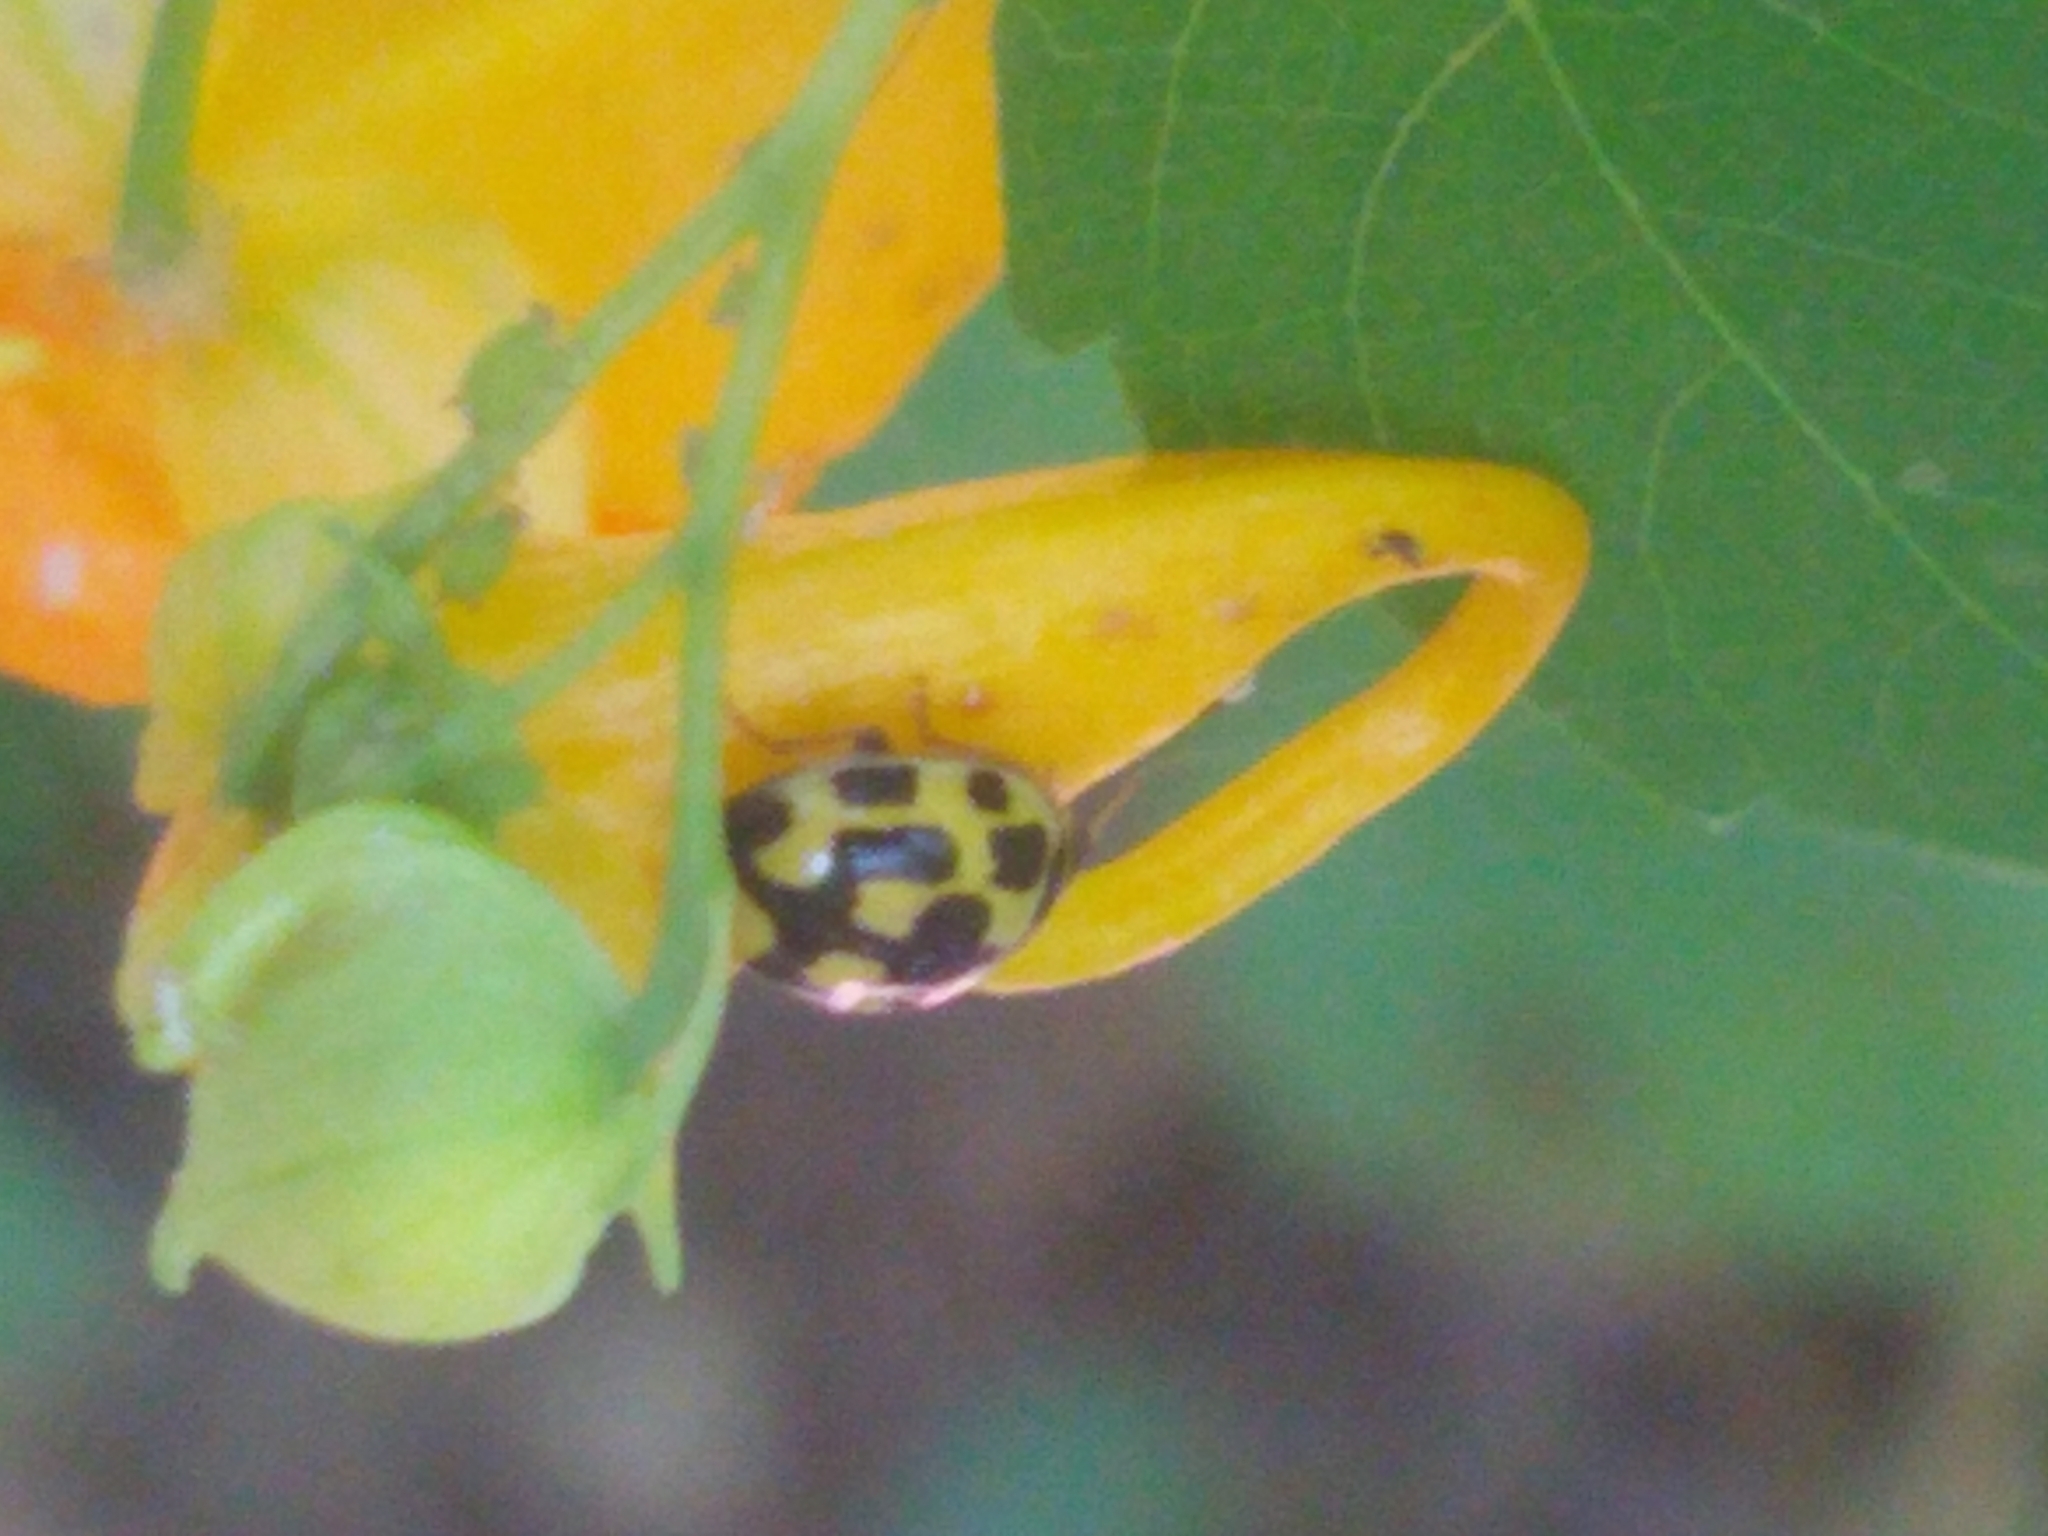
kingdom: Animalia
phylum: Arthropoda
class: Insecta
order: Coleoptera
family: Coccinellidae
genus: Propylaea
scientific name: Propylaea quatuordecimpunctata
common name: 14-spotted ladybird beetle
